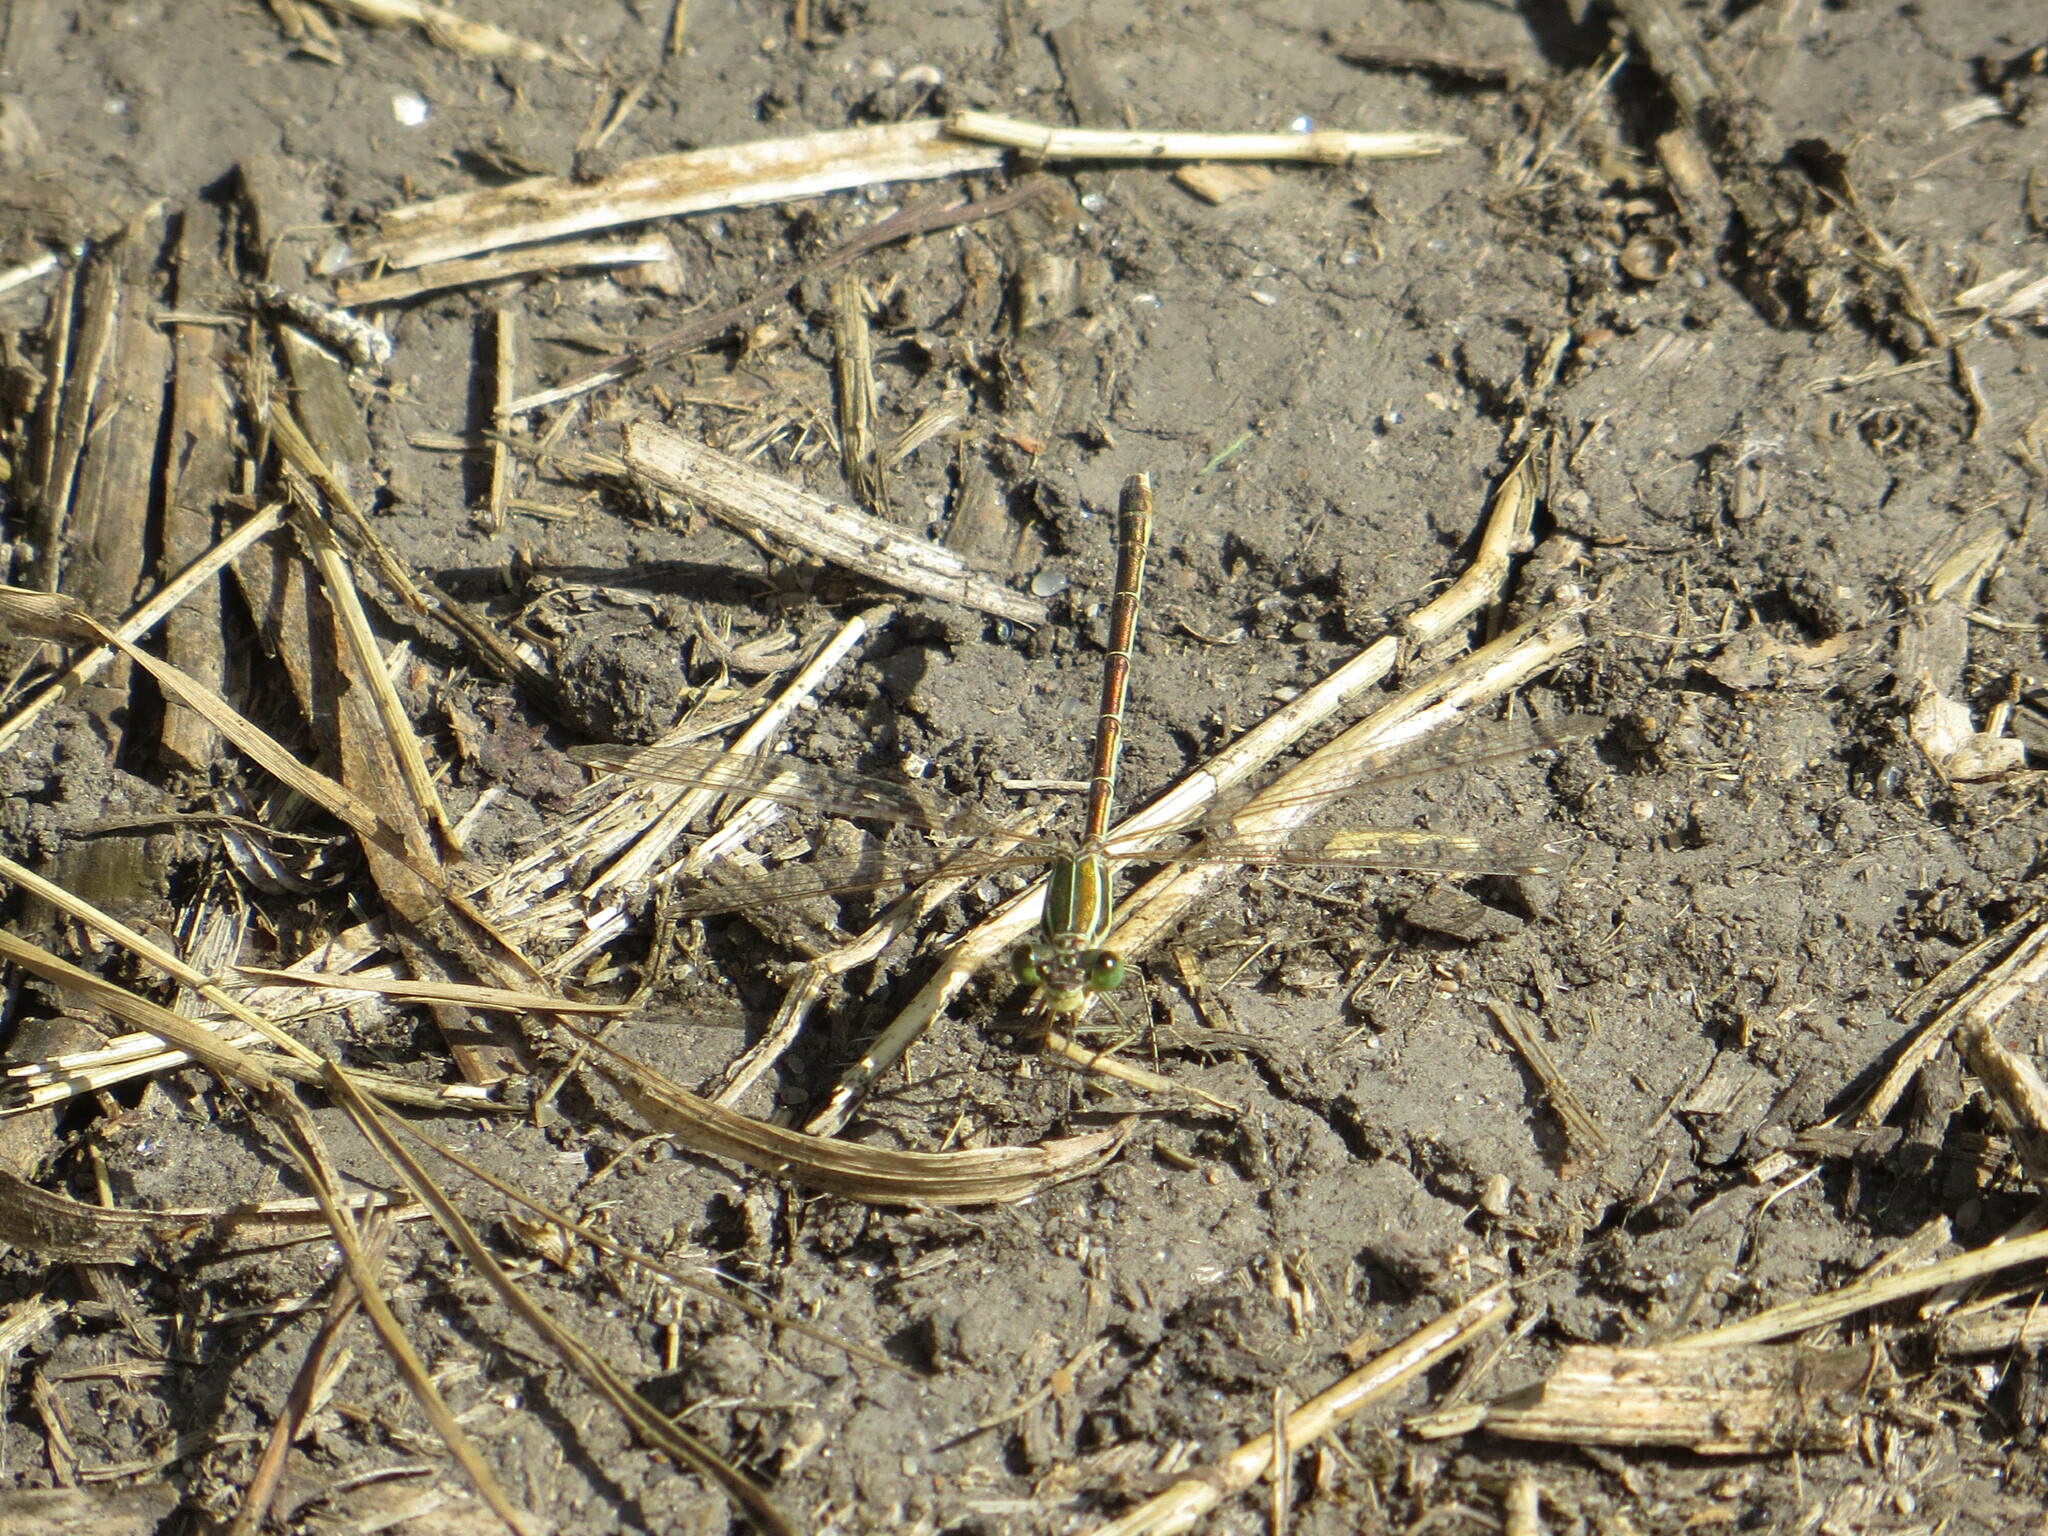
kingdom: Animalia
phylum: Arthropoda
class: Insecta
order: Odonata
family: Lestidae
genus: Lestes
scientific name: Lestes barbarus
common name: Migrant spreadwing
